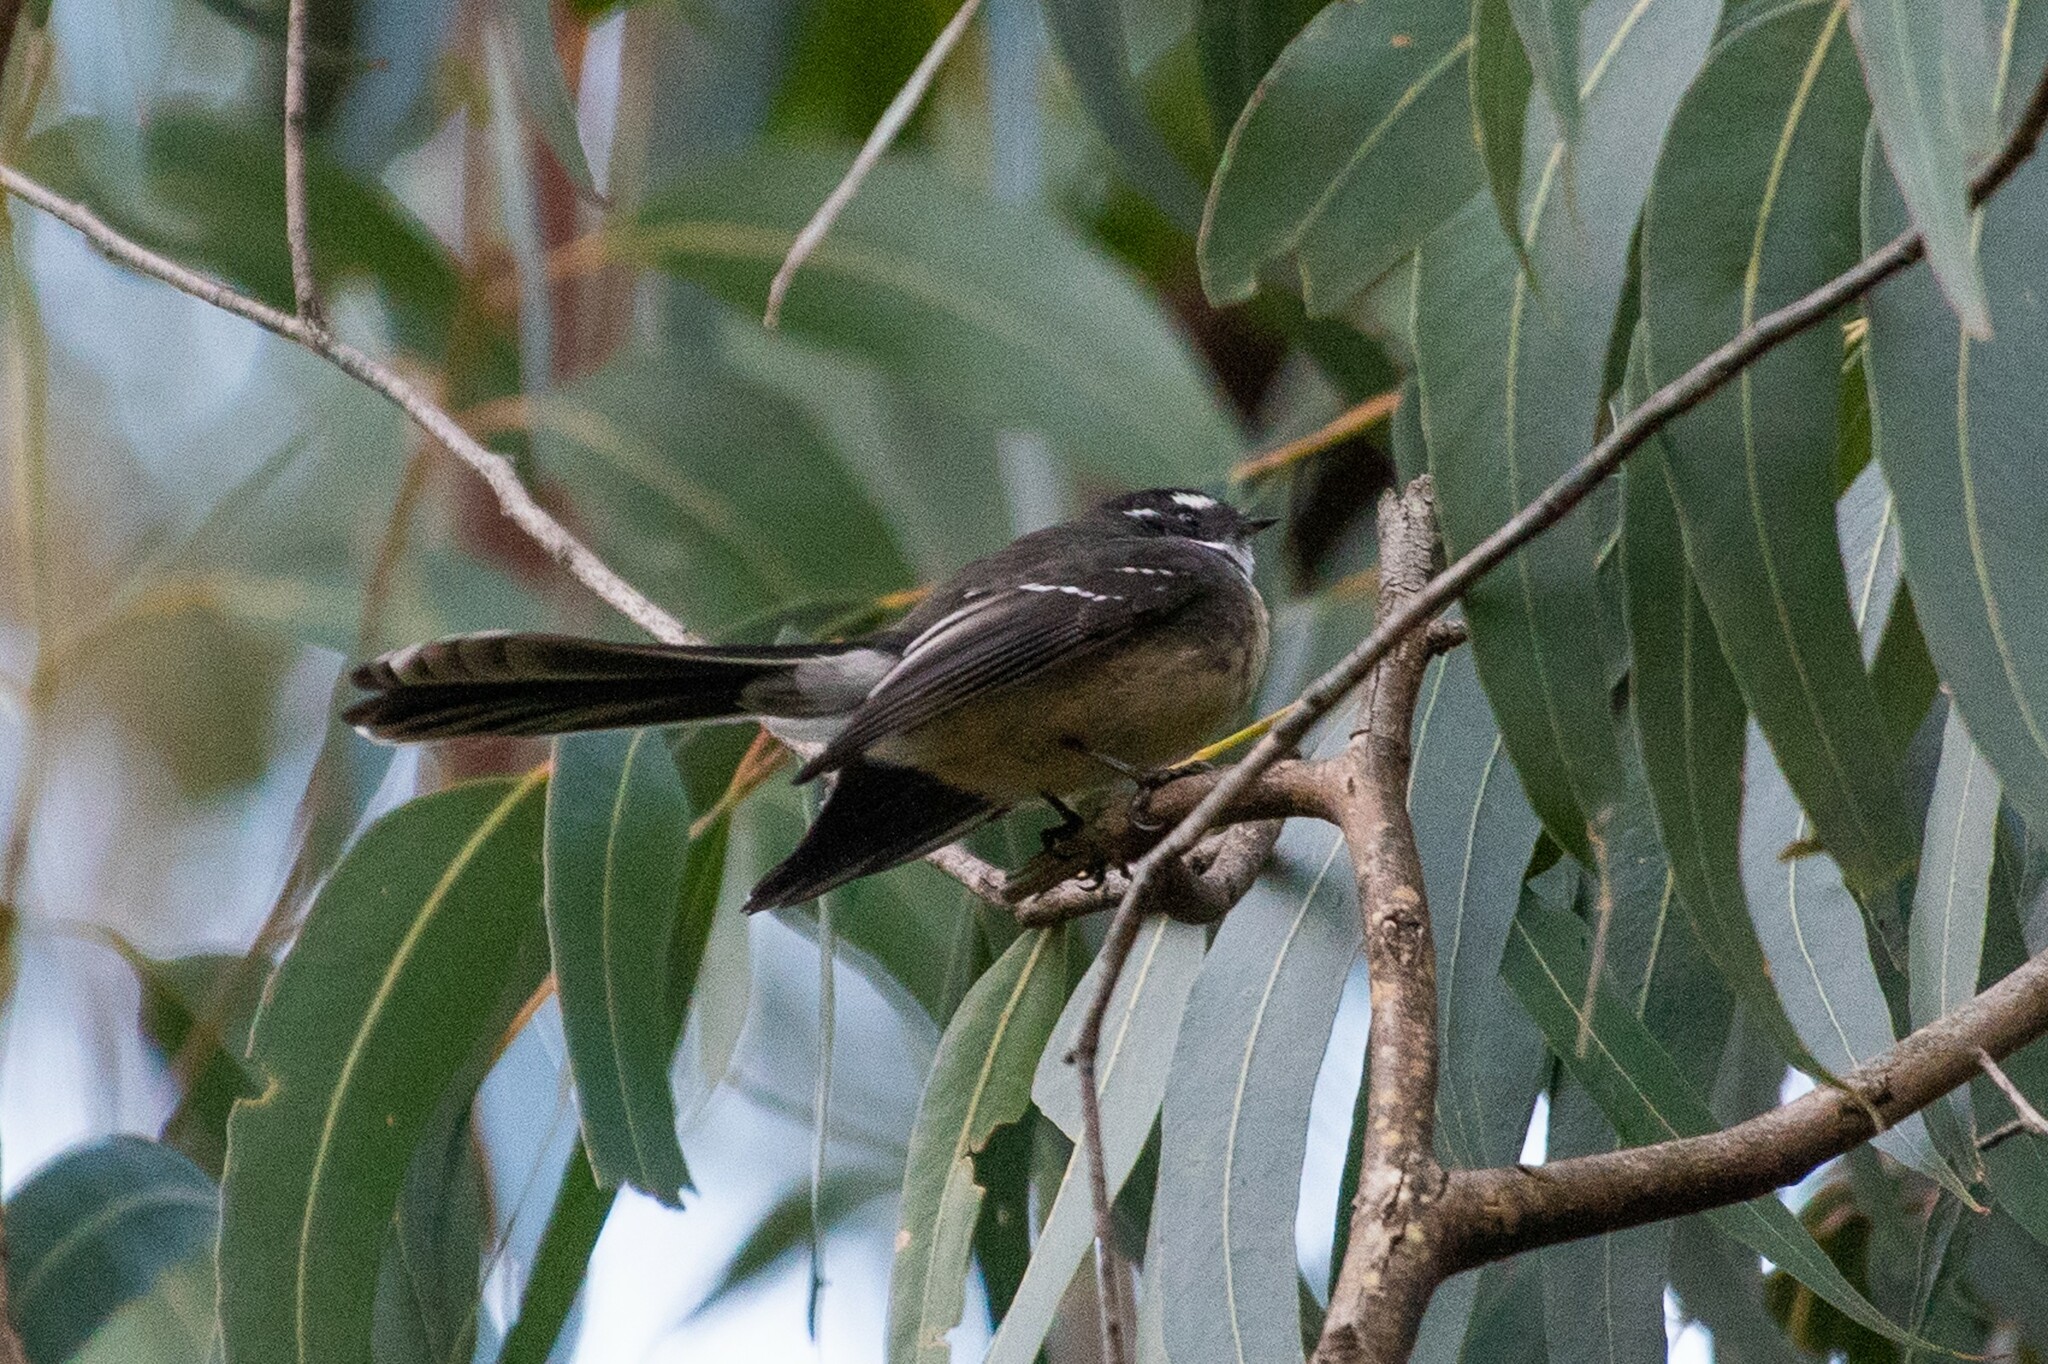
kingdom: Animalia
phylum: Chordata
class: Aves
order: Passeriformes
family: Rhipiduridae
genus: Rhipidura
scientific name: Rhipidura albiscapa
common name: Grey fantail
